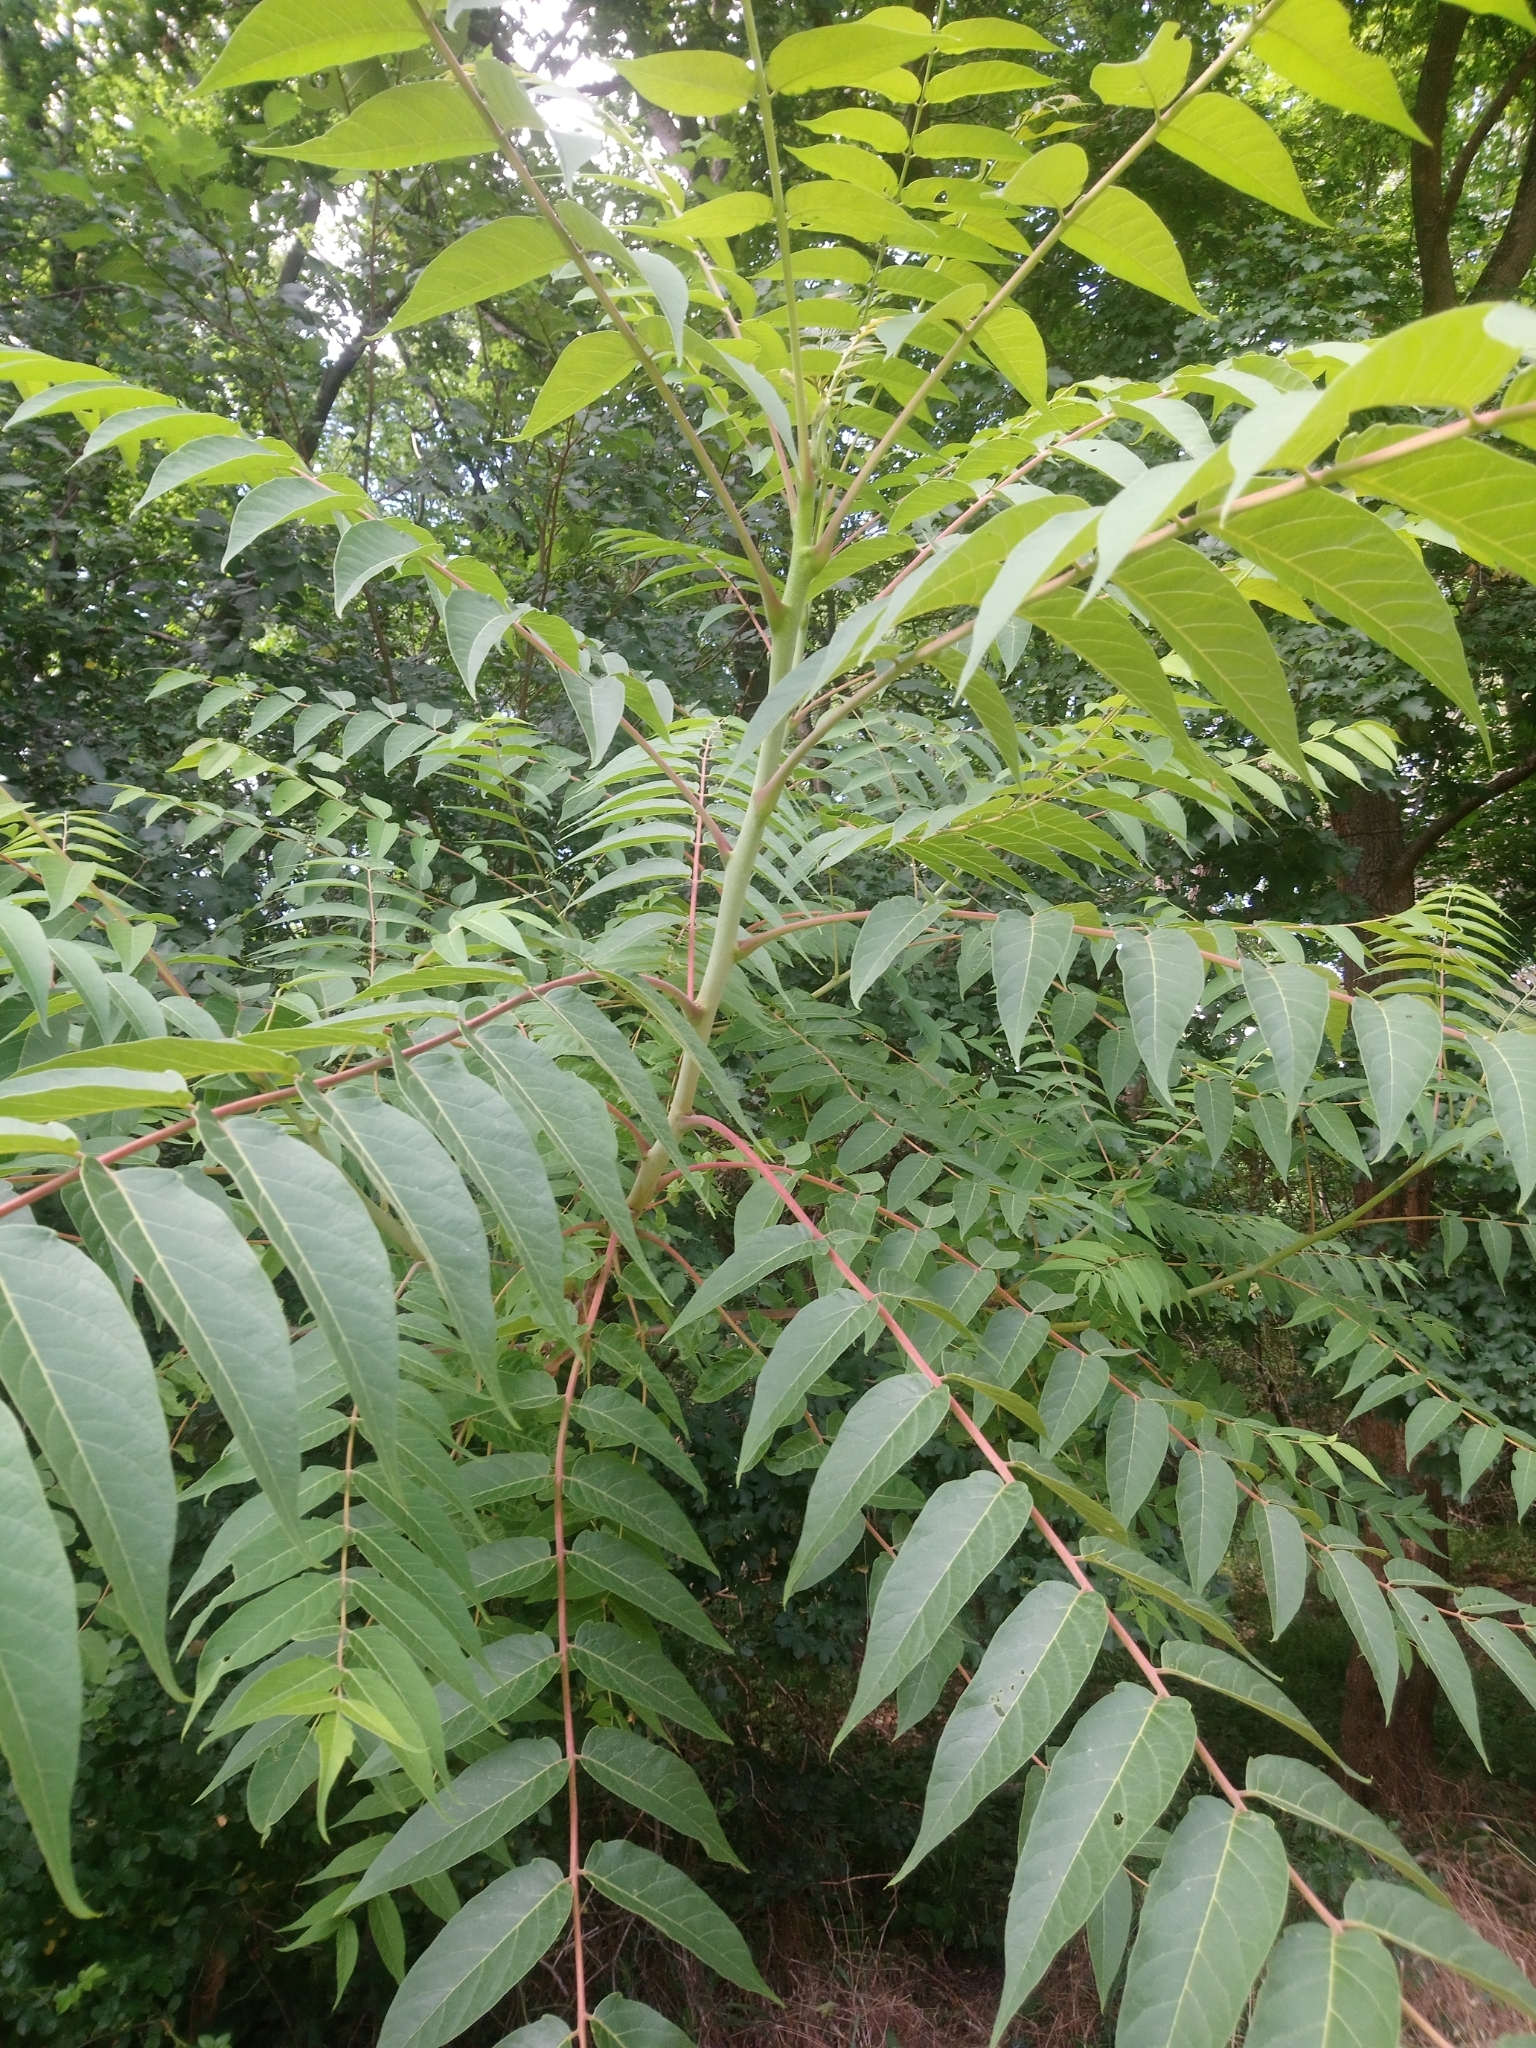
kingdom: Plantae
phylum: Tracheophyta
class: Magnoliopsida
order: Sapindales
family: Simaroubaceae
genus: Ailanthus
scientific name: Ailanthus altissima
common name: Tree-of-heaven
